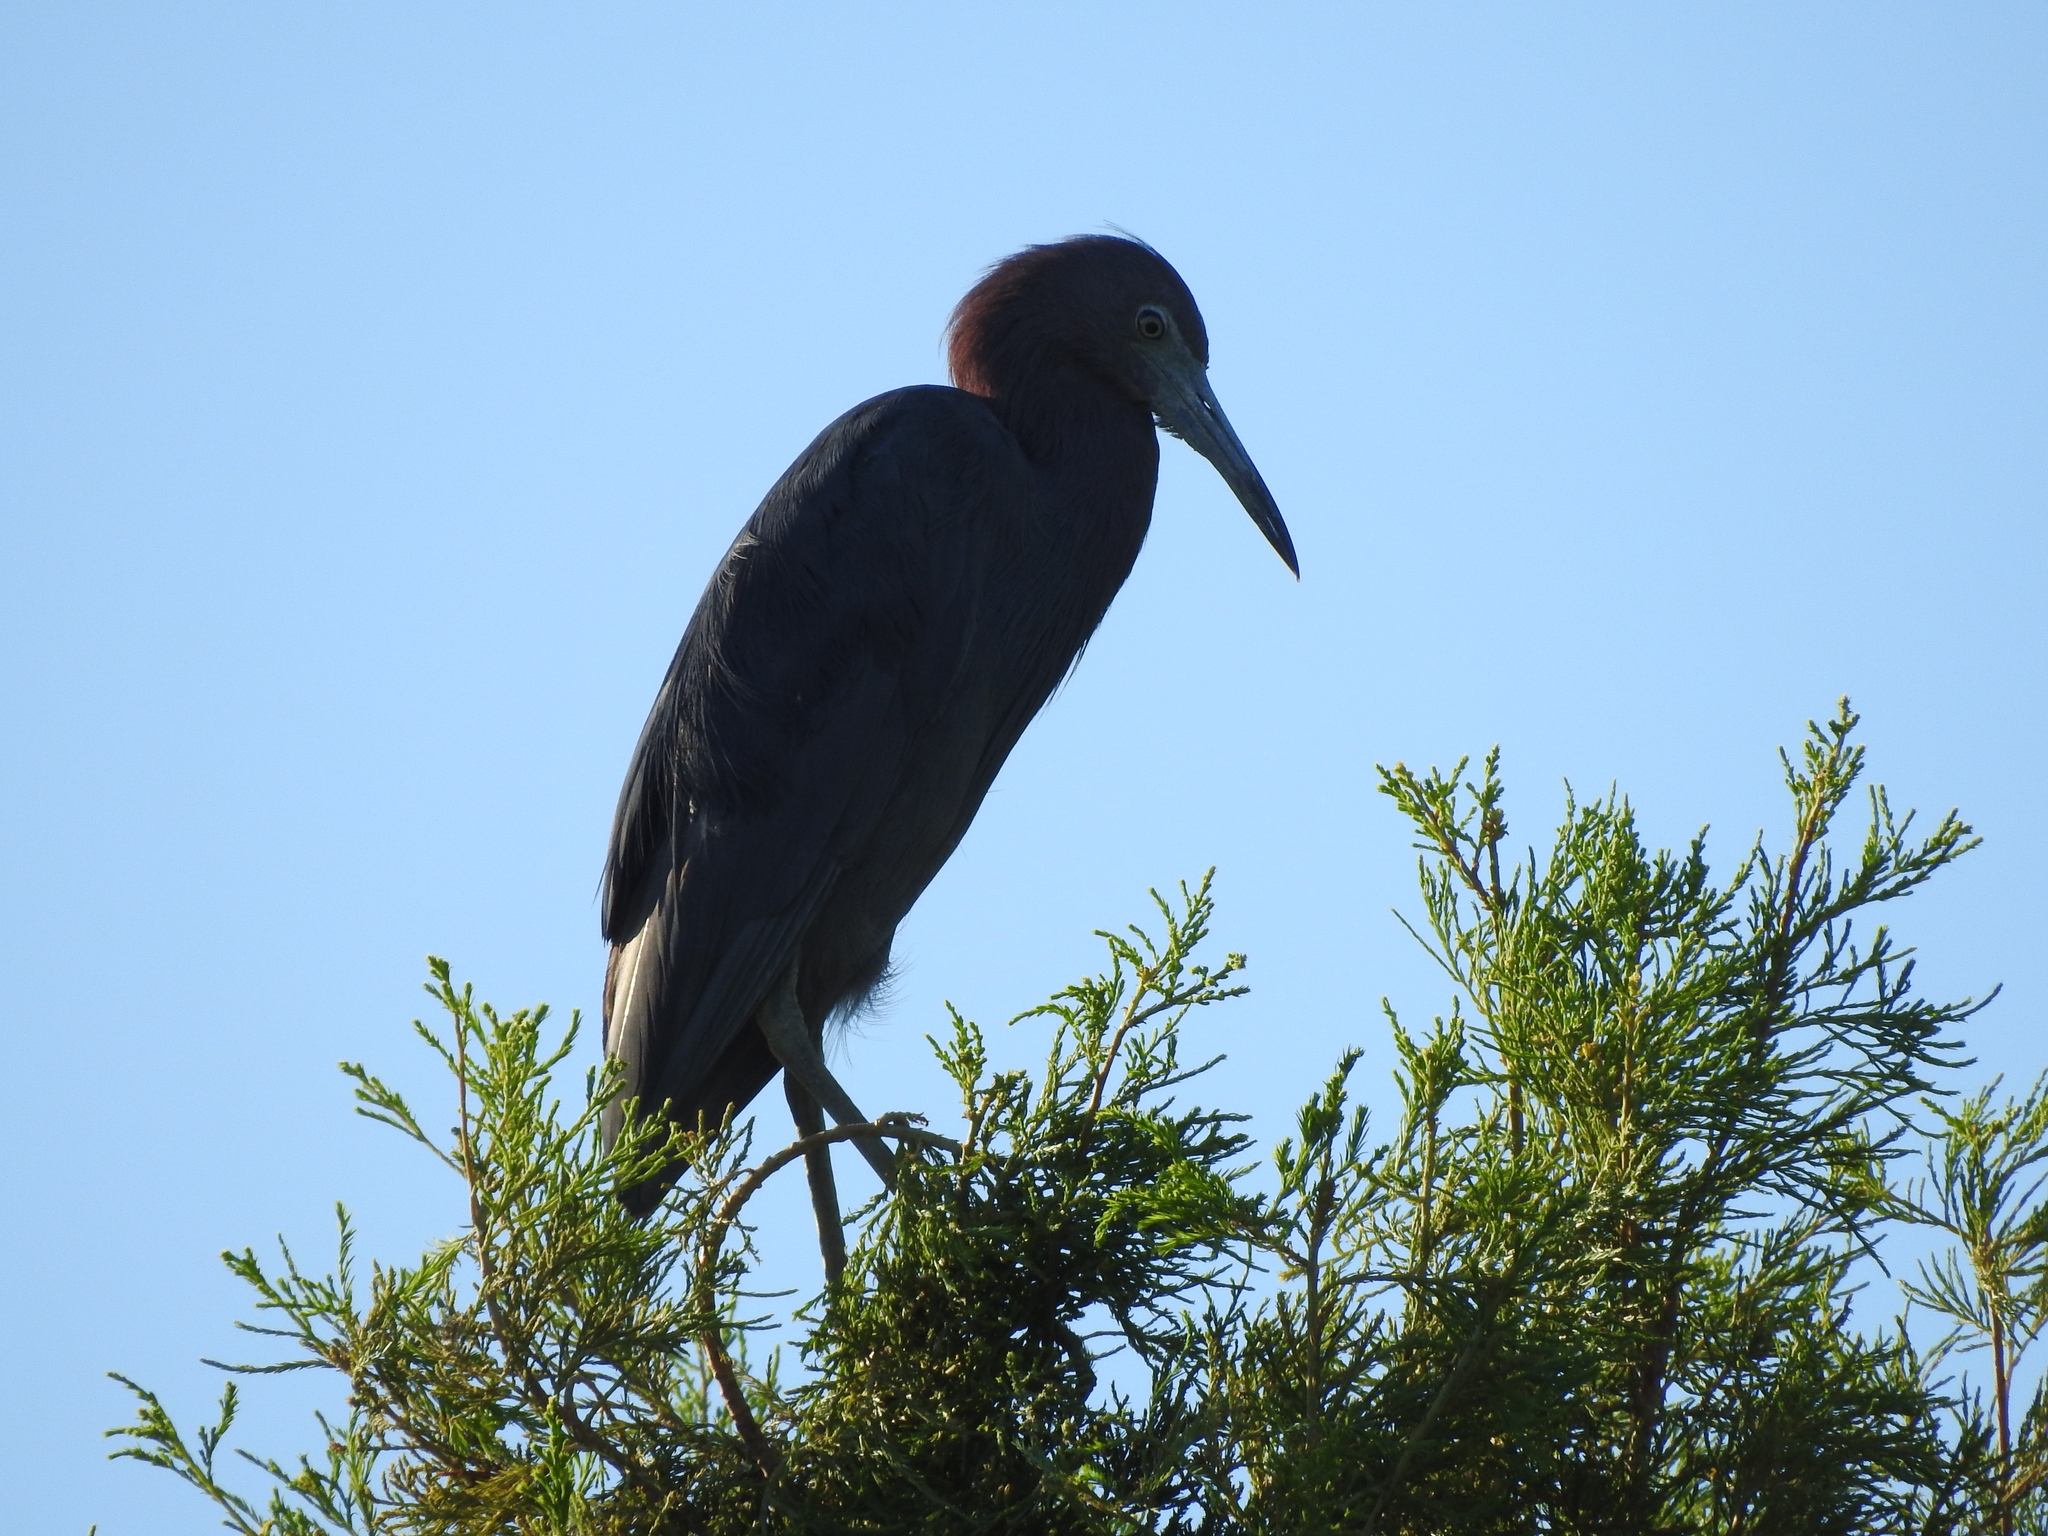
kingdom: Animalia
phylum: Chordata
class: Aves
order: Pelecaniformes
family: Ardeidae
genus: Egretta
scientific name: Egretta caerulea
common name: Little blue heron
